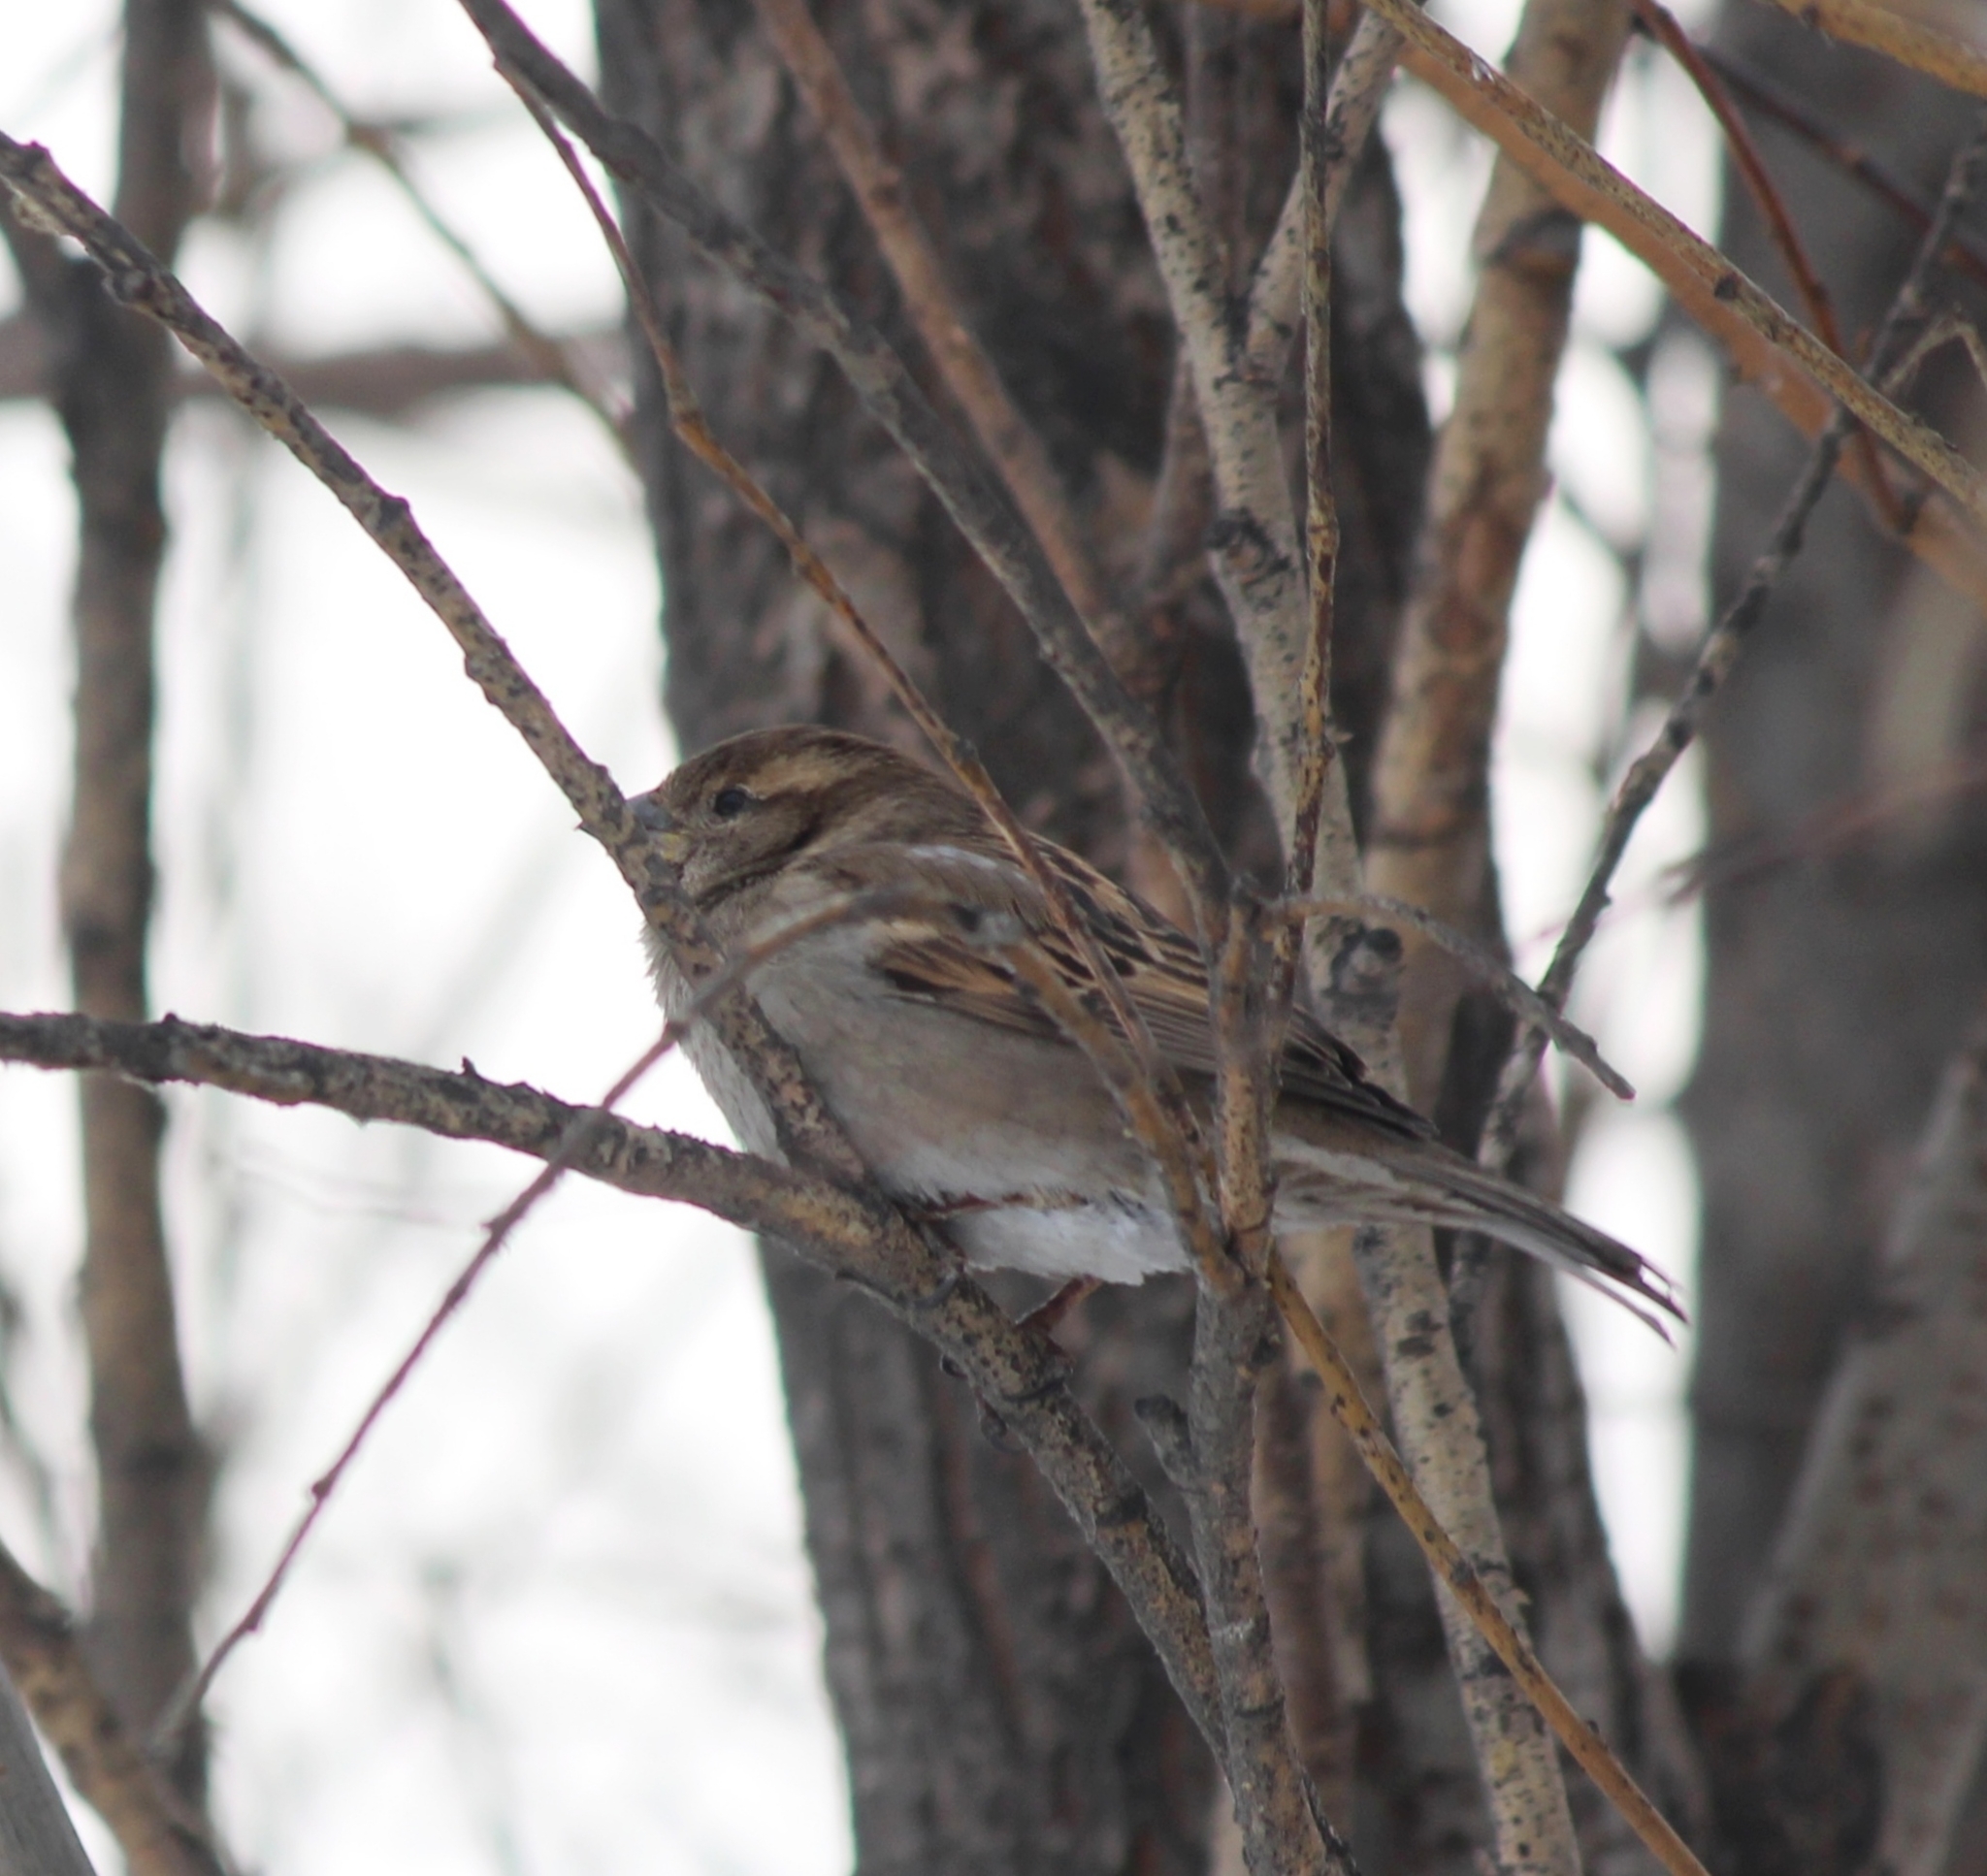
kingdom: Animalia
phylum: Chordata
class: Aves
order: Passeriformes
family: Passeridae
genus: Passer
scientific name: Passer domesticus
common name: House sparrow
